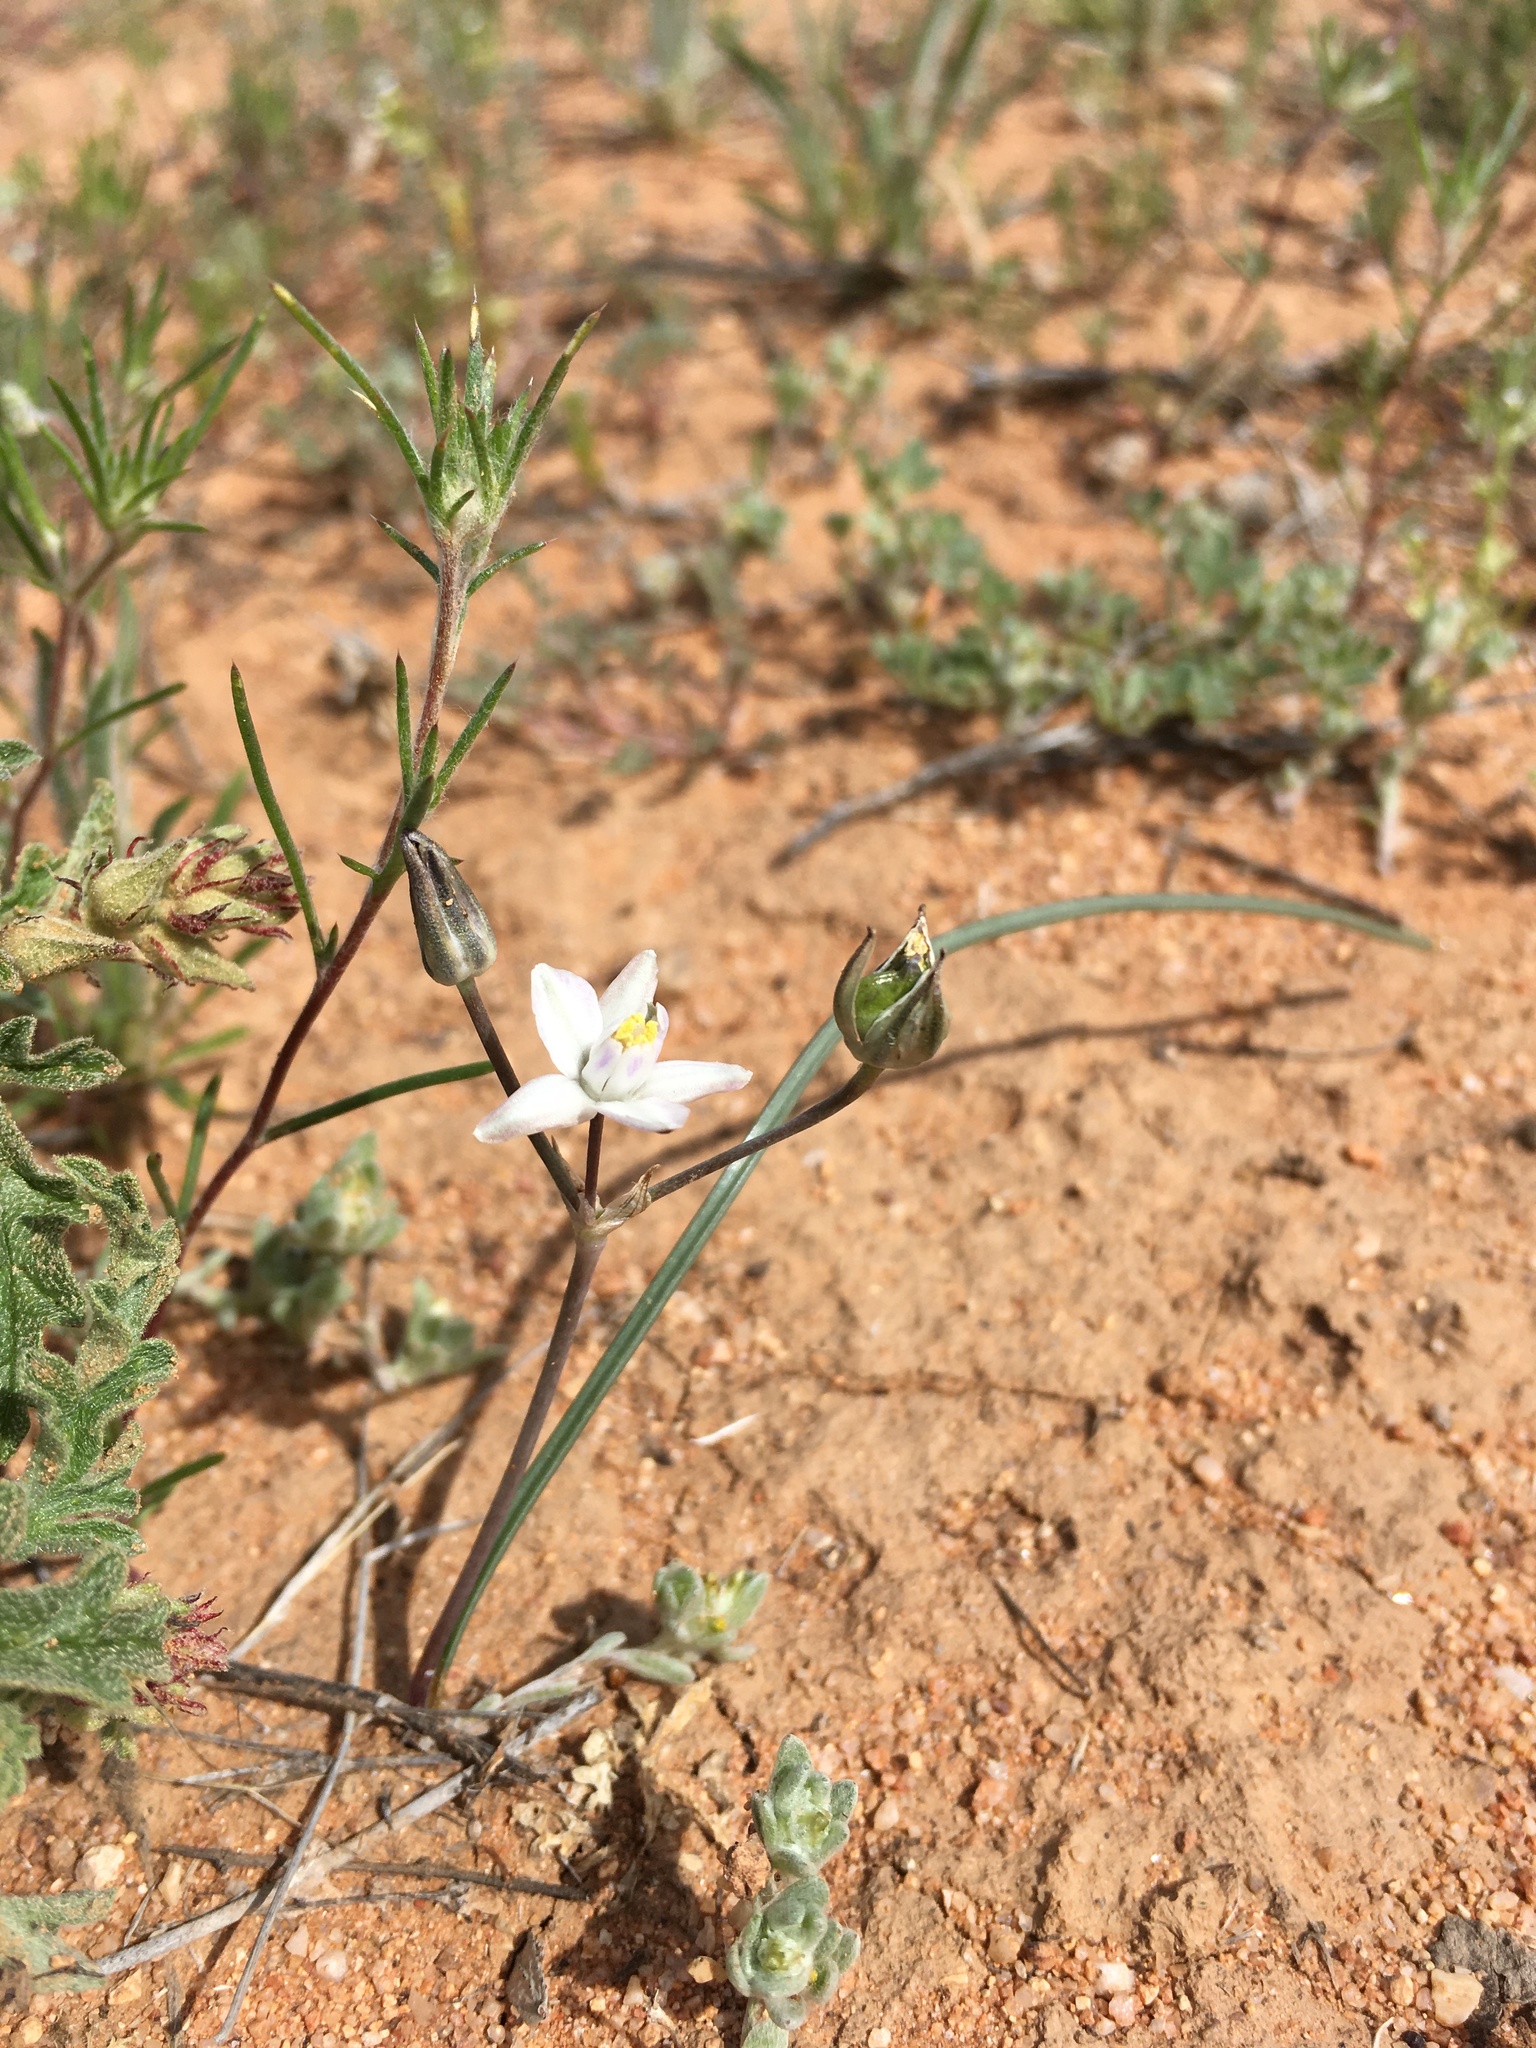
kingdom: Plantae
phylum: Tracheophyta
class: Liliopsida
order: Asparagales
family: Asparagaceae
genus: Muilla
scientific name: Muilla lordsburgana
